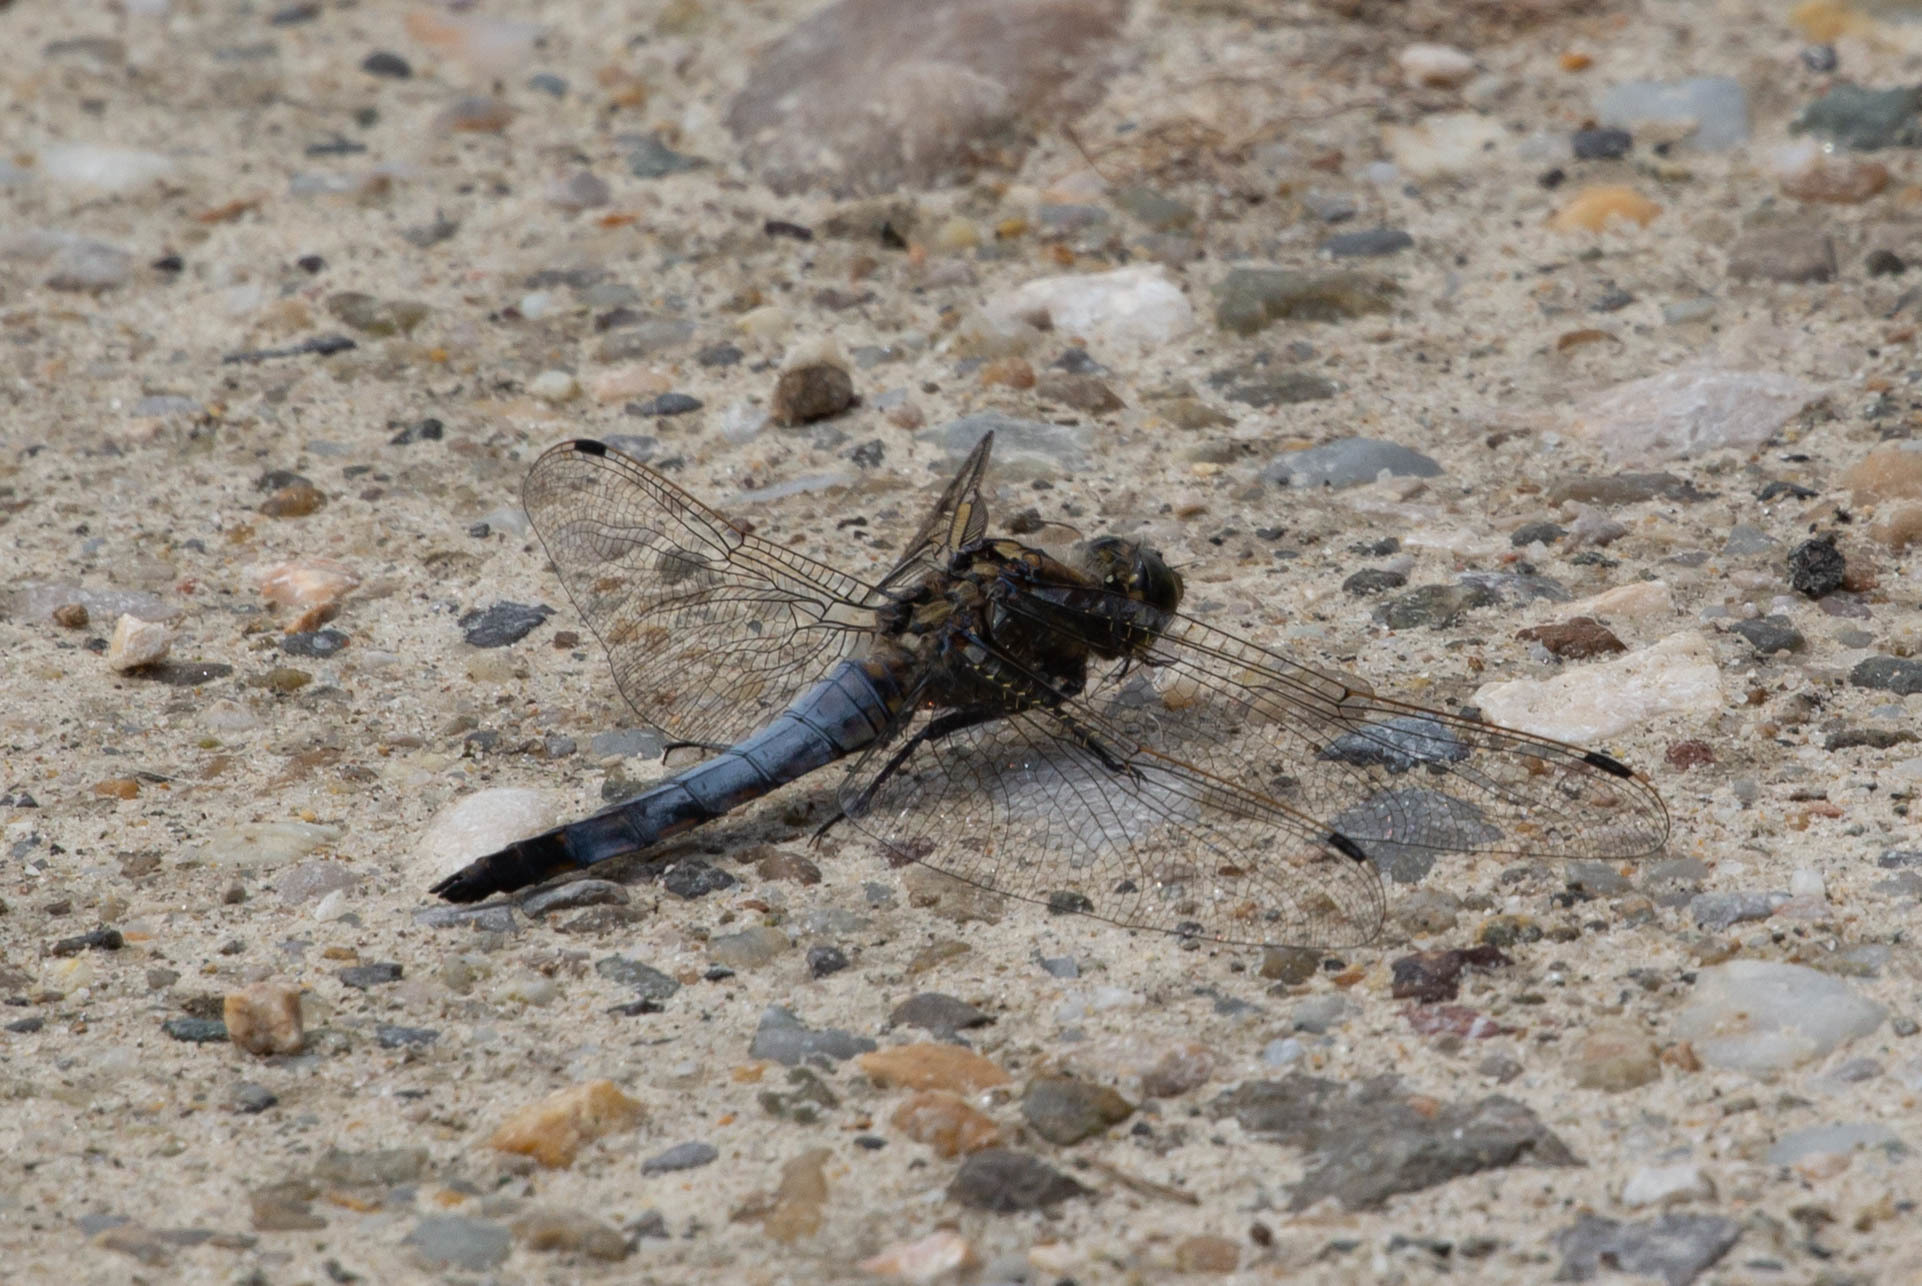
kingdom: Animalia
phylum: Arthropoda
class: Insecta
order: Odonata
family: Libellulidae
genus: Orthetrum
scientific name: Orthetrum cancellatum
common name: Black-tailed skimmer
